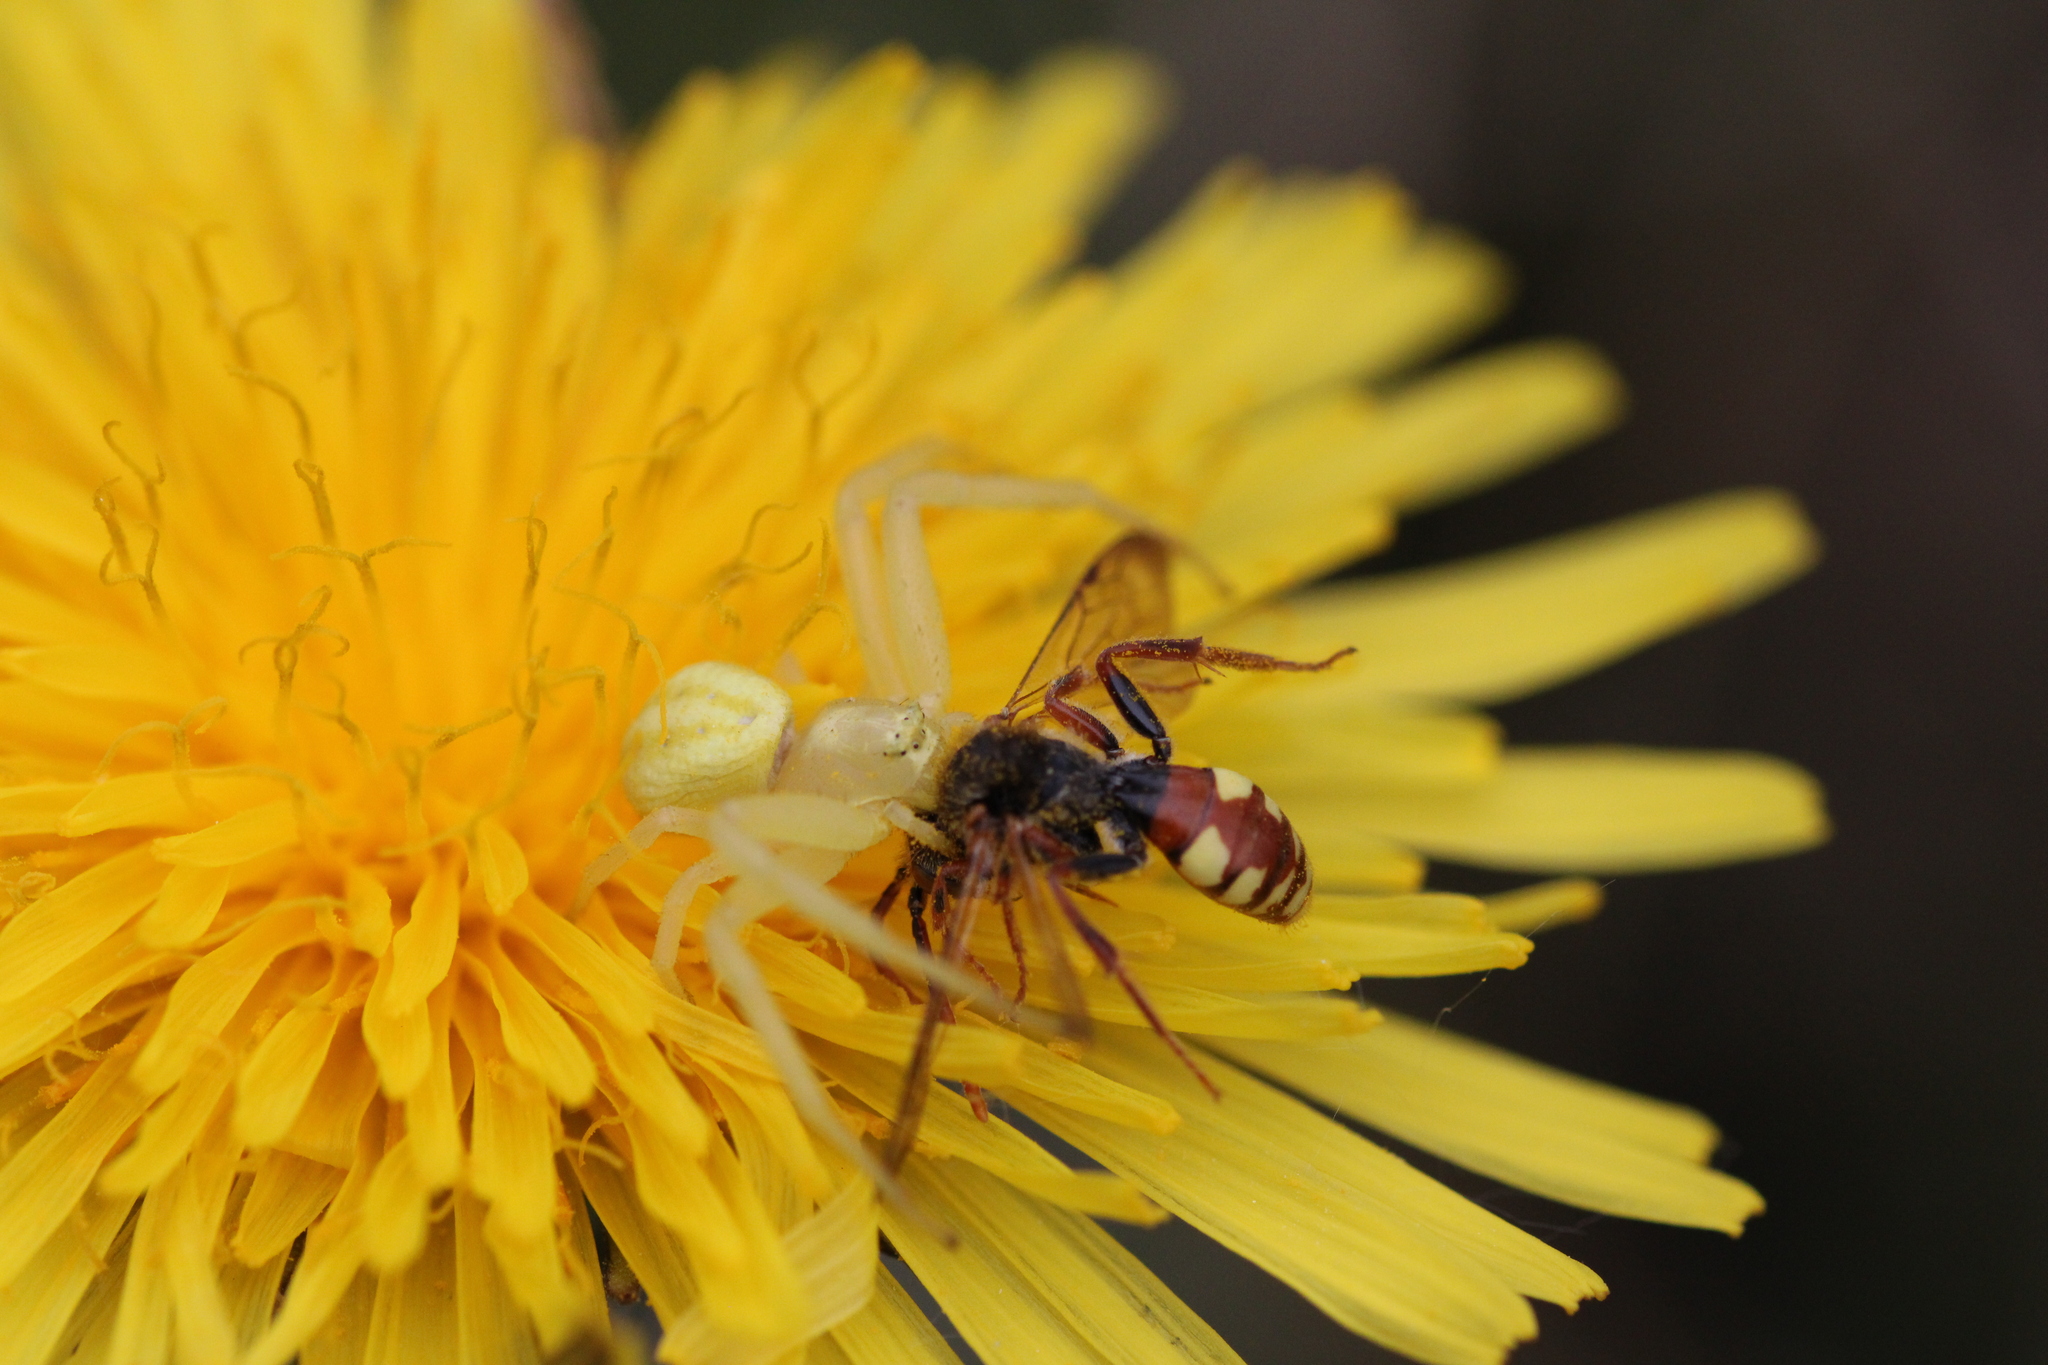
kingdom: Animalia
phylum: Arthropoda
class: Arachnida
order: Araneae
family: Thomisidae
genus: Misumena
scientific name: Misumena vatia
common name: Goldenrod crab spider
